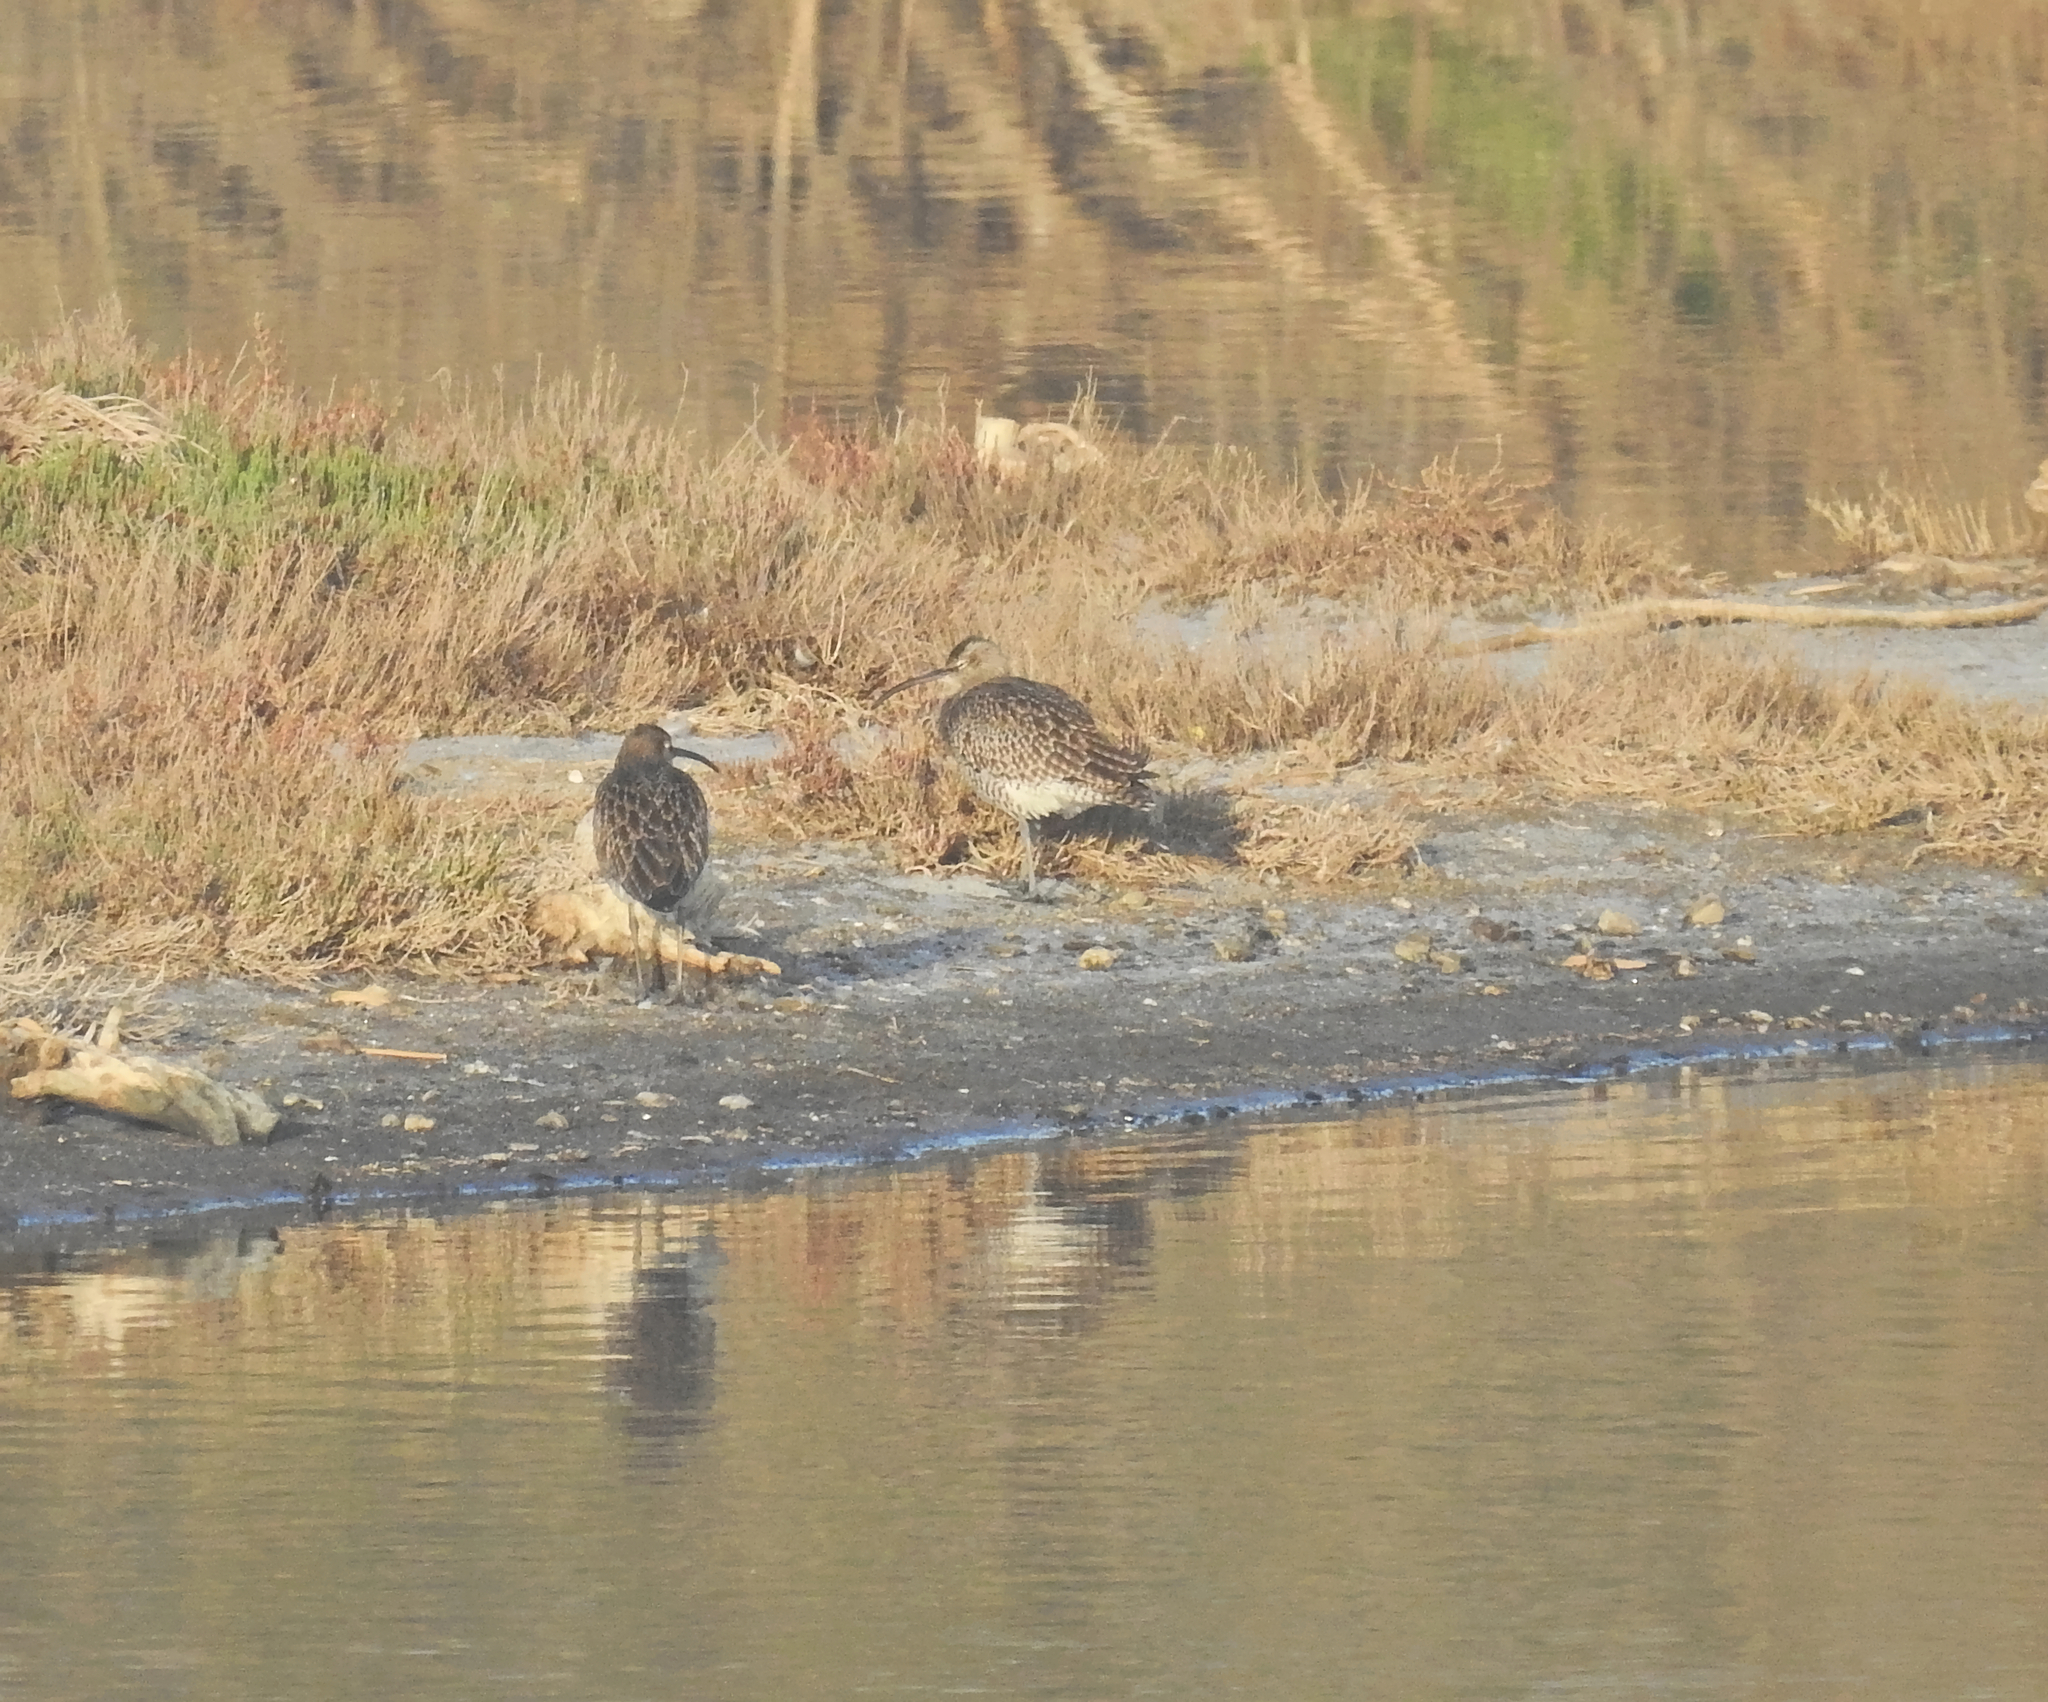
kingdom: Animalia
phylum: Chordata
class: Aves
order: Charadriiformes
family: Scolopacidae
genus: Numenius
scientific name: Numenius phaeopus
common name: Whimbrel
